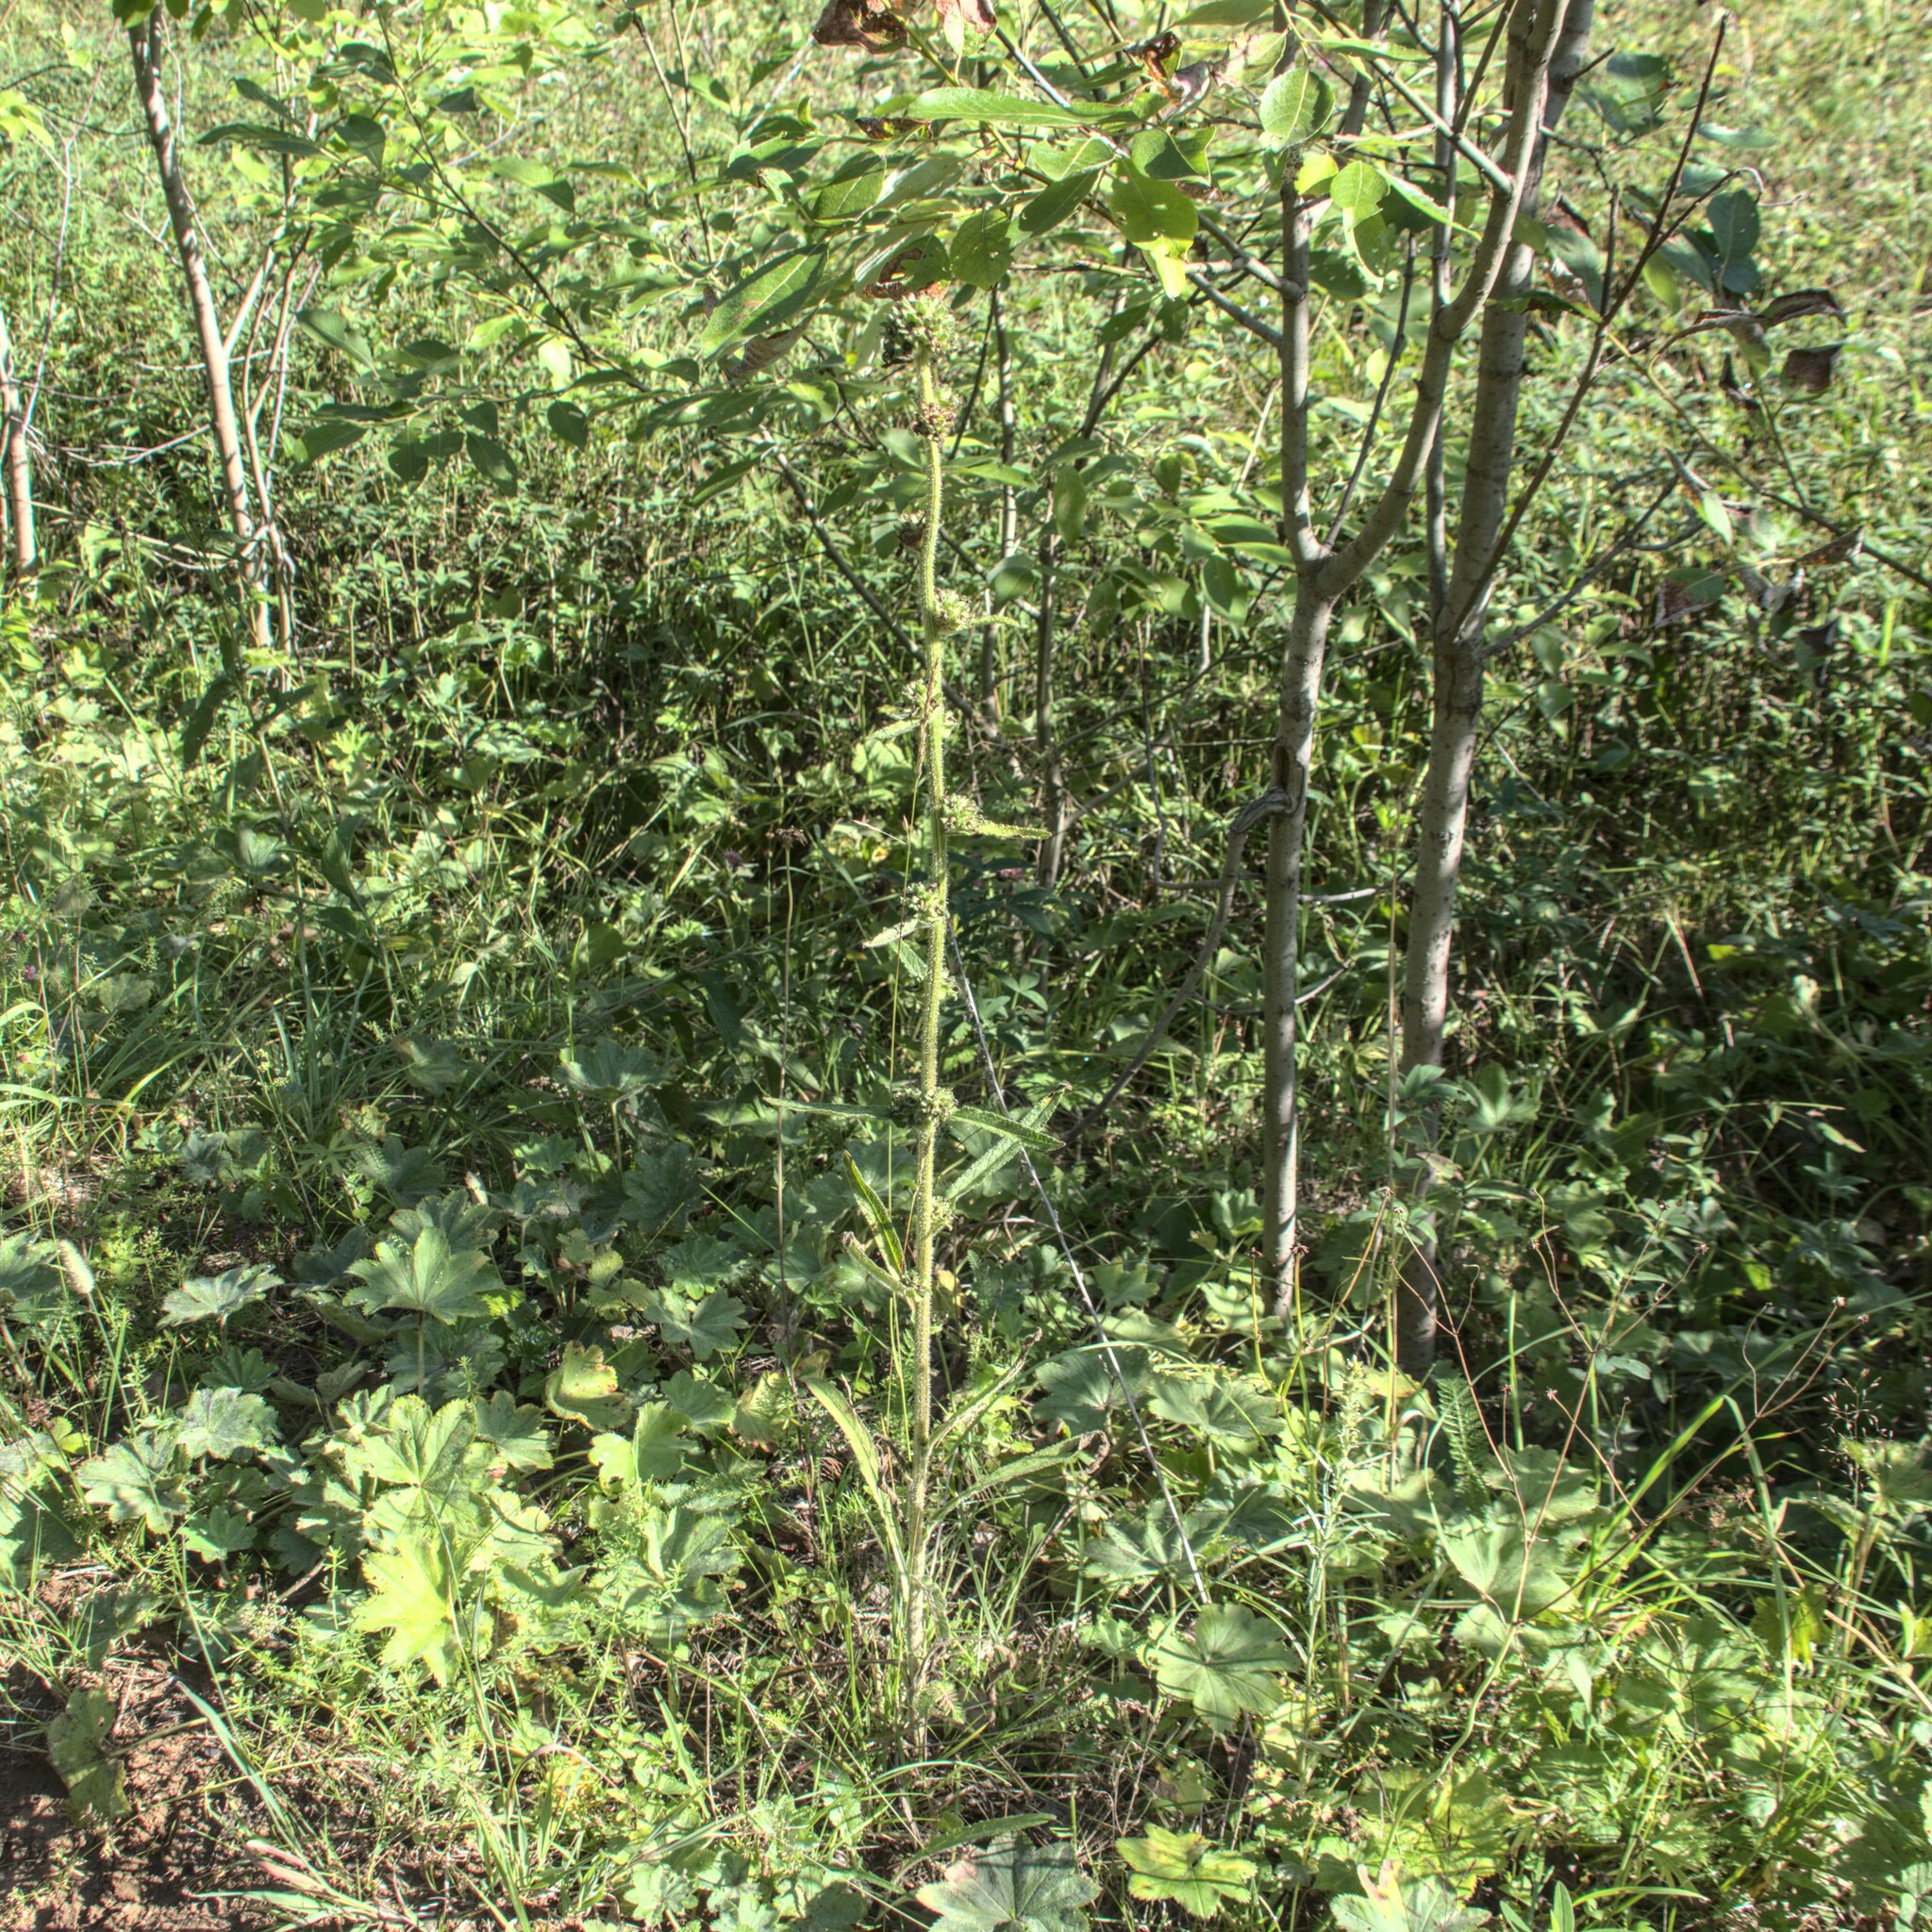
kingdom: Plantae
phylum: Tracheophyta
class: Magnoliopsida
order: Asterales
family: Campanulaceae
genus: Campanula
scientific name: Campanula cervicaria
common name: Bristly bellflower
